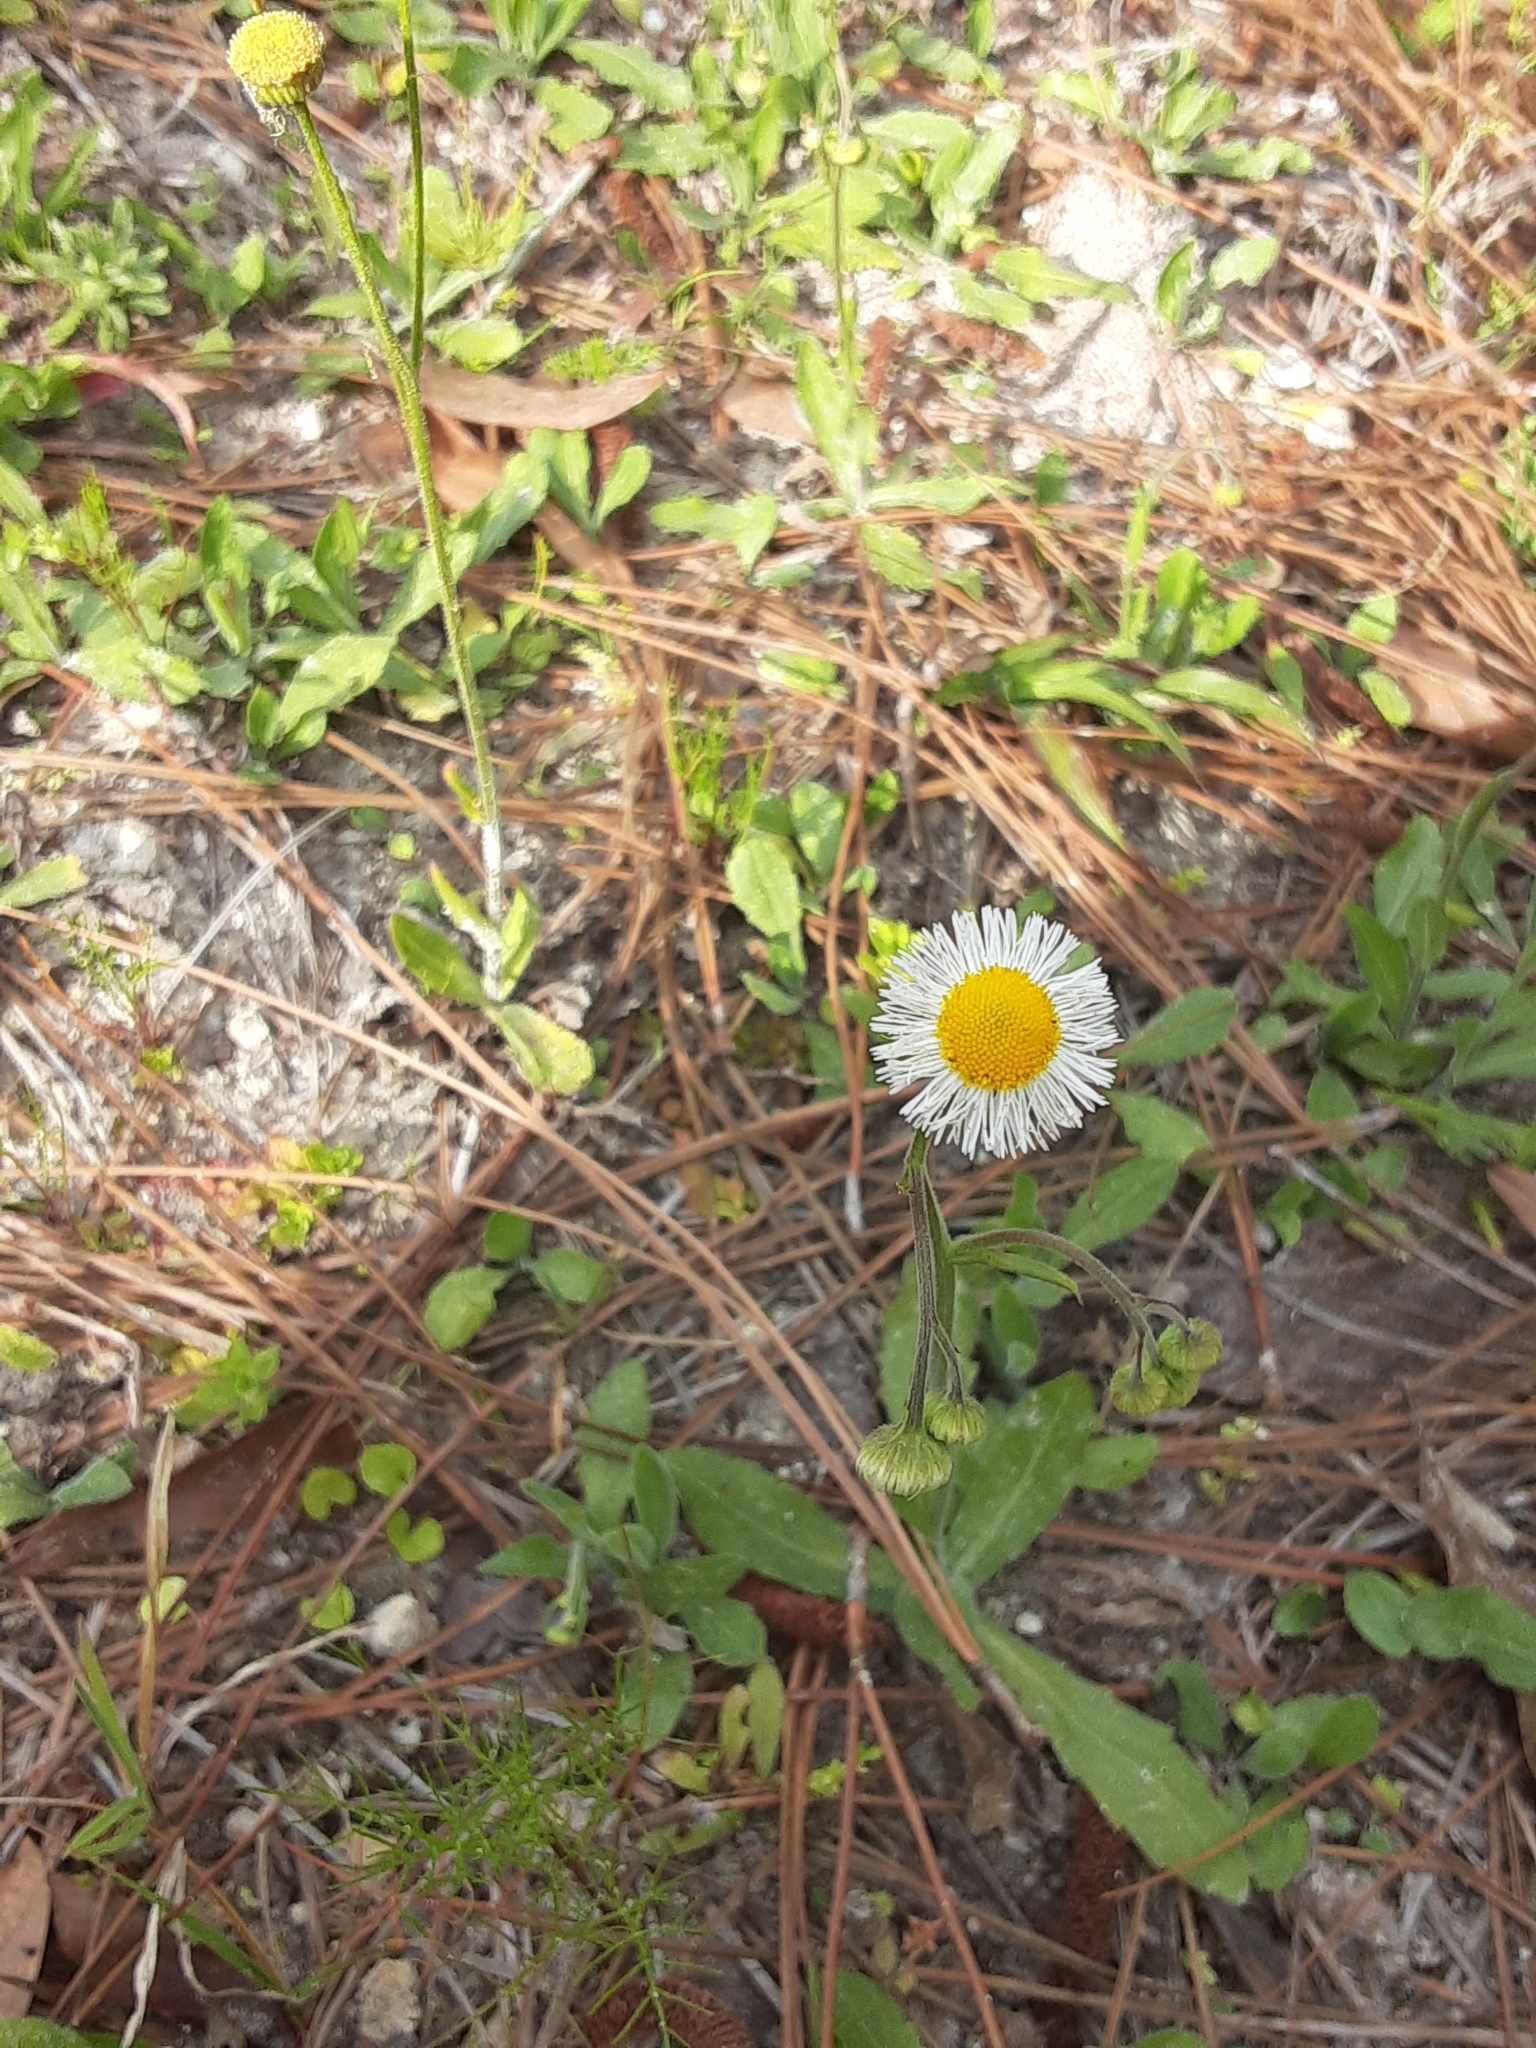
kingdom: Plantae
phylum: Tracheophyta
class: Magnoliopsida
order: Asterales
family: Asteraceae
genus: Erigeron
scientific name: Erigeron quercifolius
